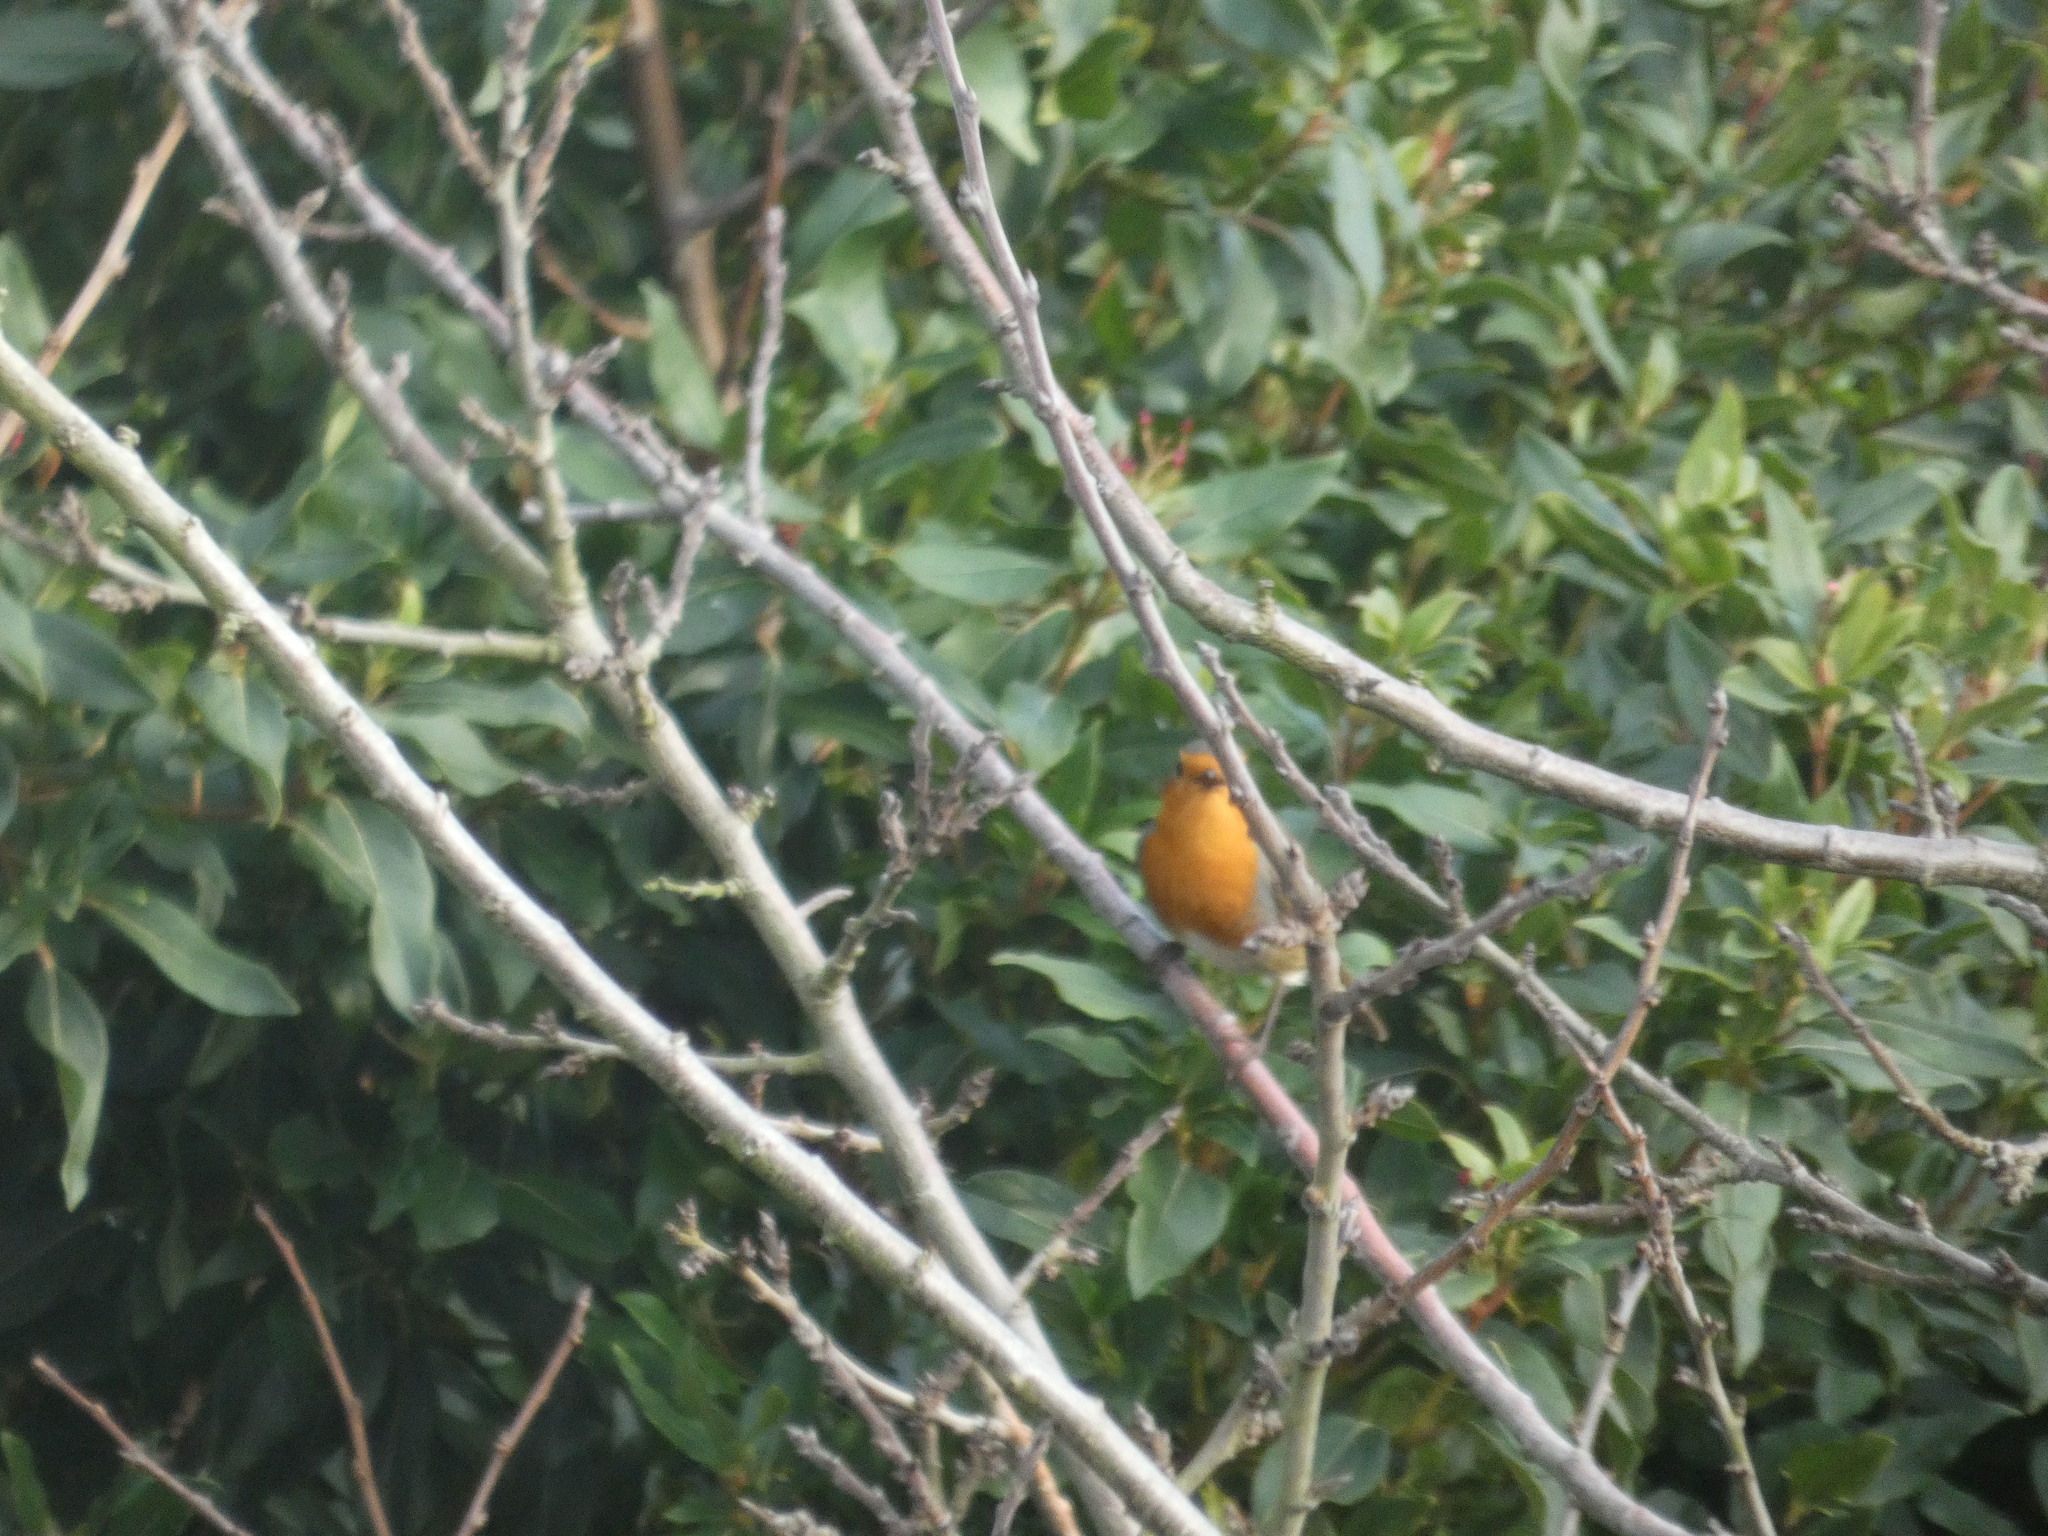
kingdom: Animalia
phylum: Chordata
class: Aves
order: Passeriformes
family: Muscicapidae
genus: Erithacus
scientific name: Erithacus rubecula
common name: European robin
